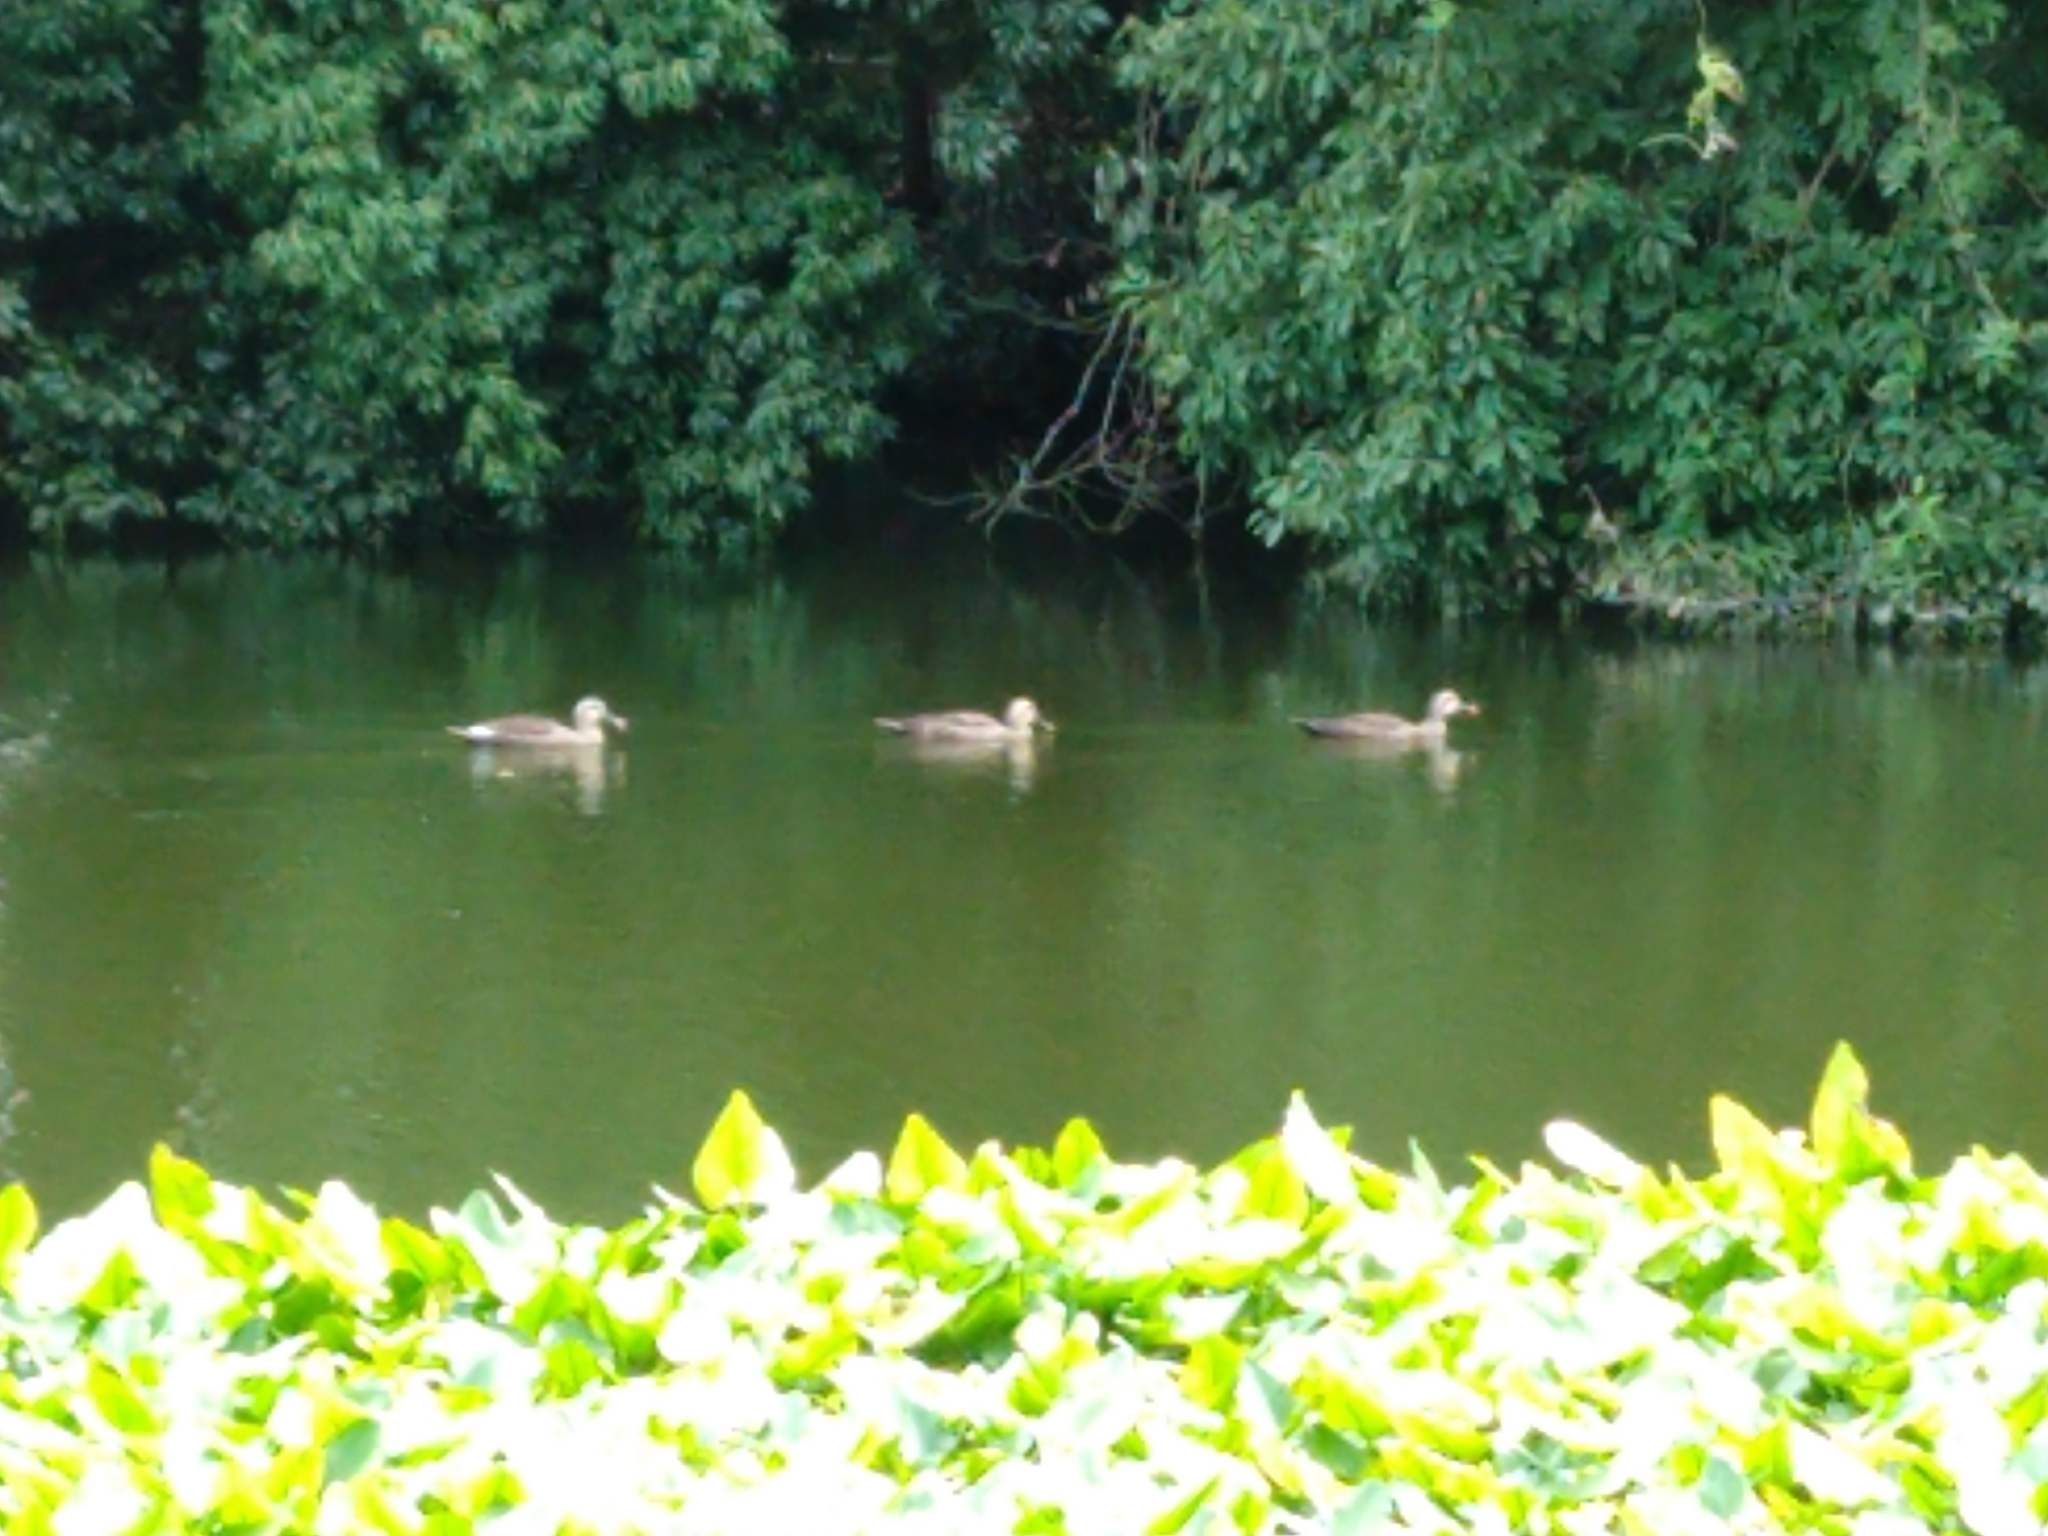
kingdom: Animalia
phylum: Chordata
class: Aves
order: Anseriformes
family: Anatidae
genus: Anas
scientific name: Anas zonorhyncha
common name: Eastern spot-billed duck
